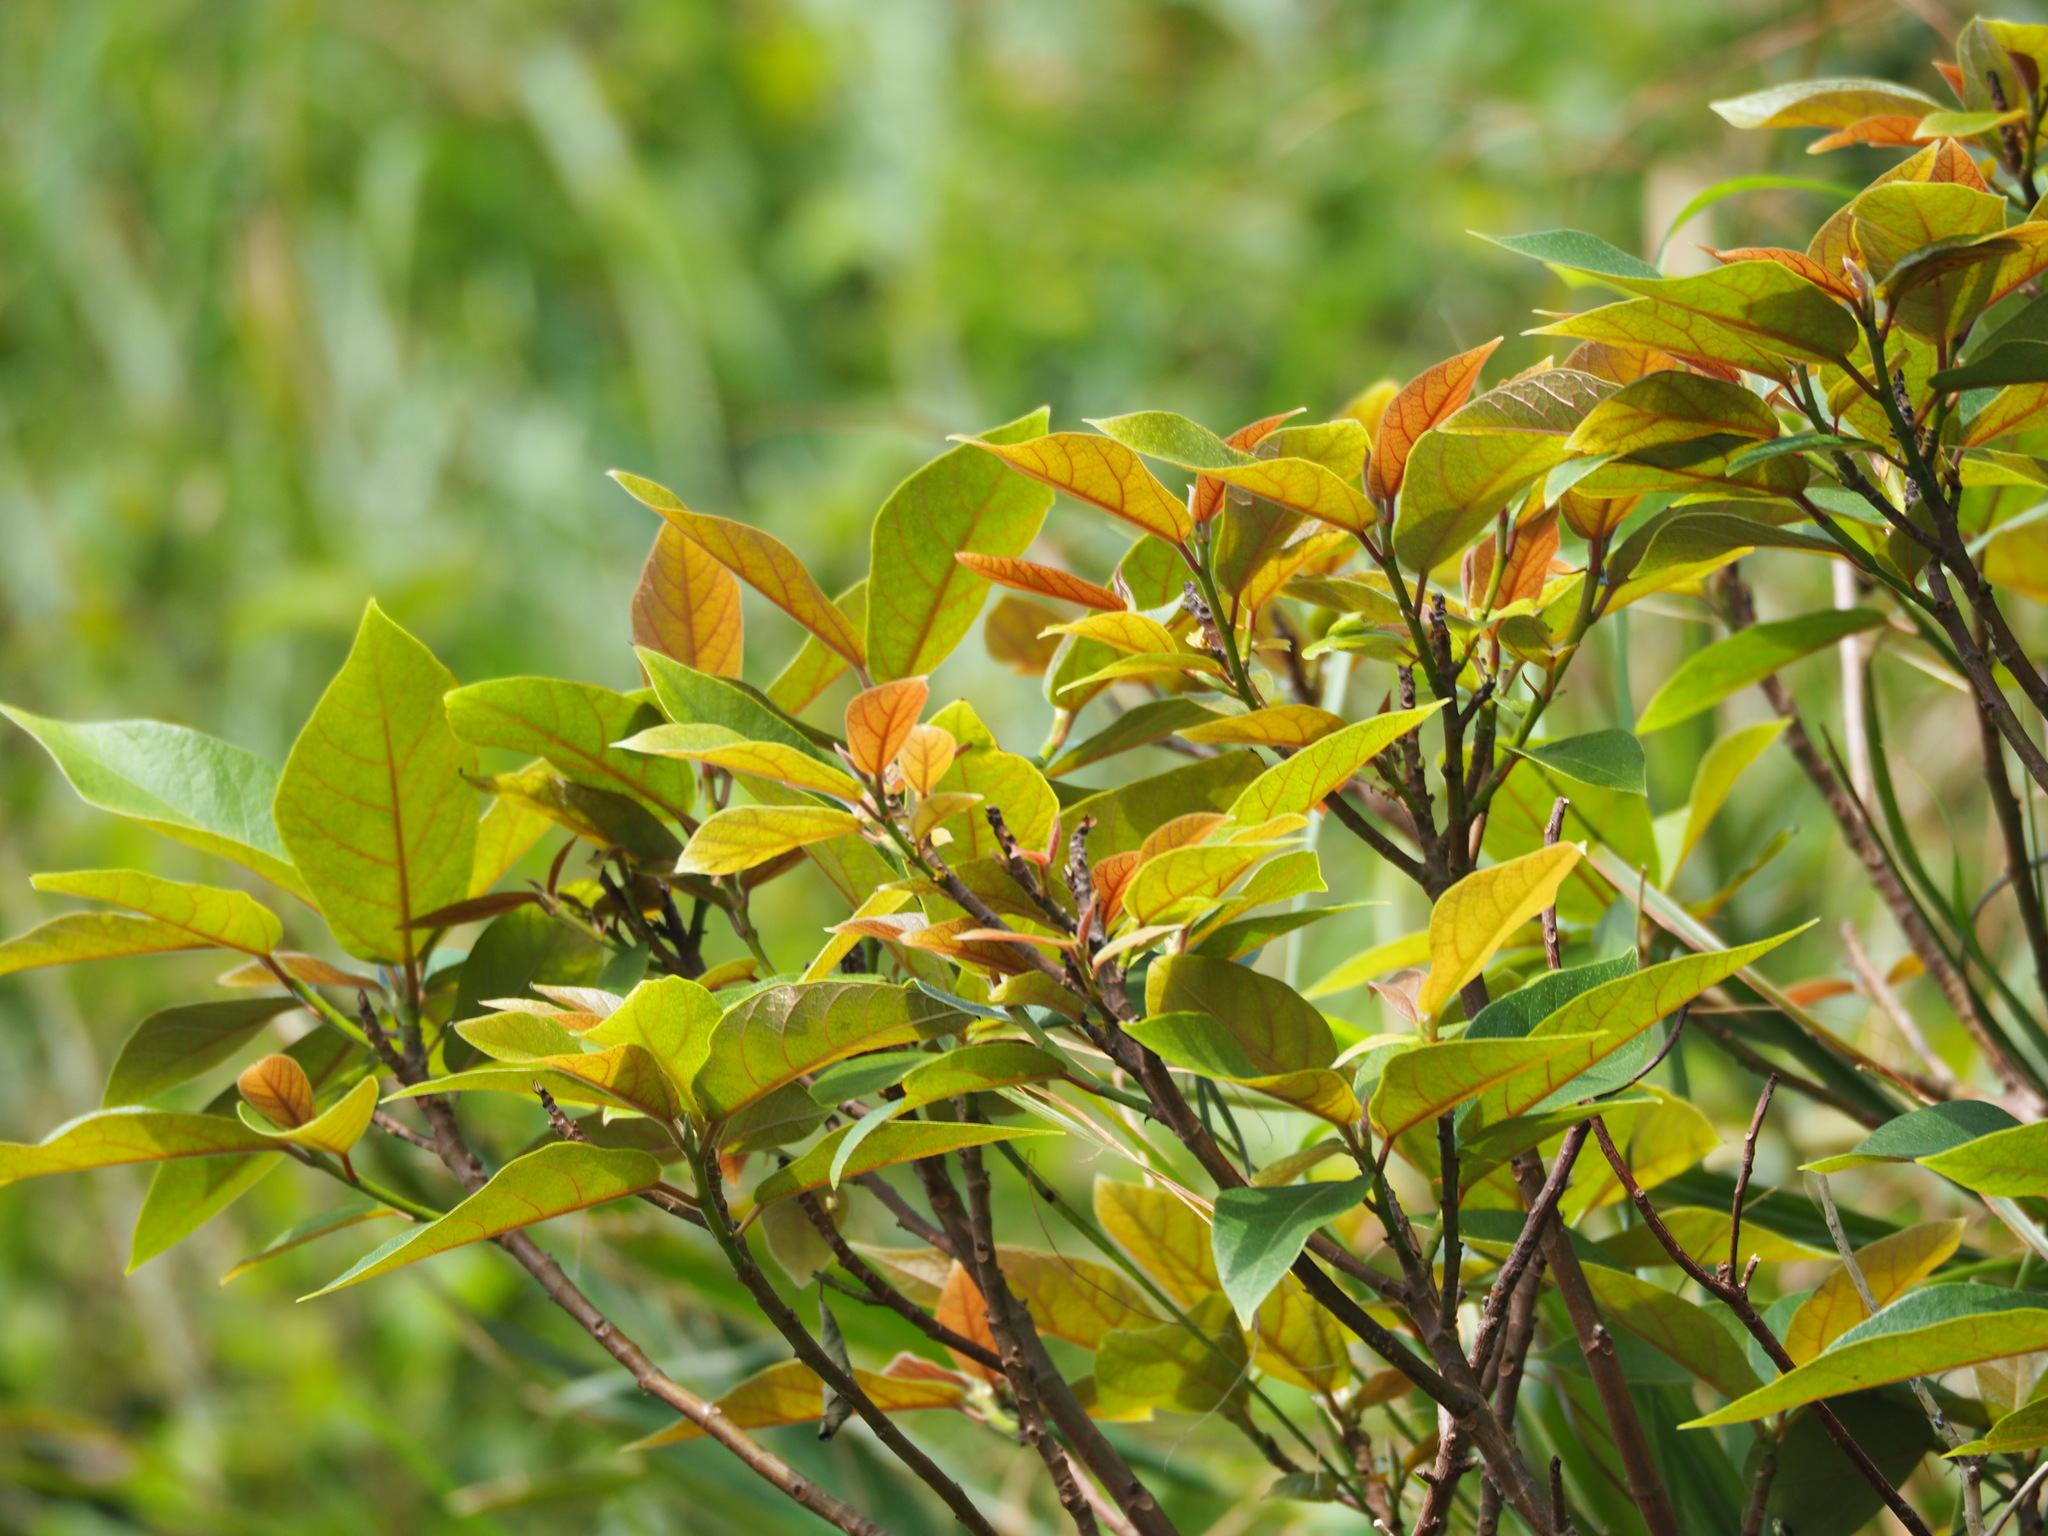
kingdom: Plantae
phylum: Tracheophyta
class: Magnoliopsida
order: Rosales
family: Moraceae
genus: Ficus
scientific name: Ficus erecta
